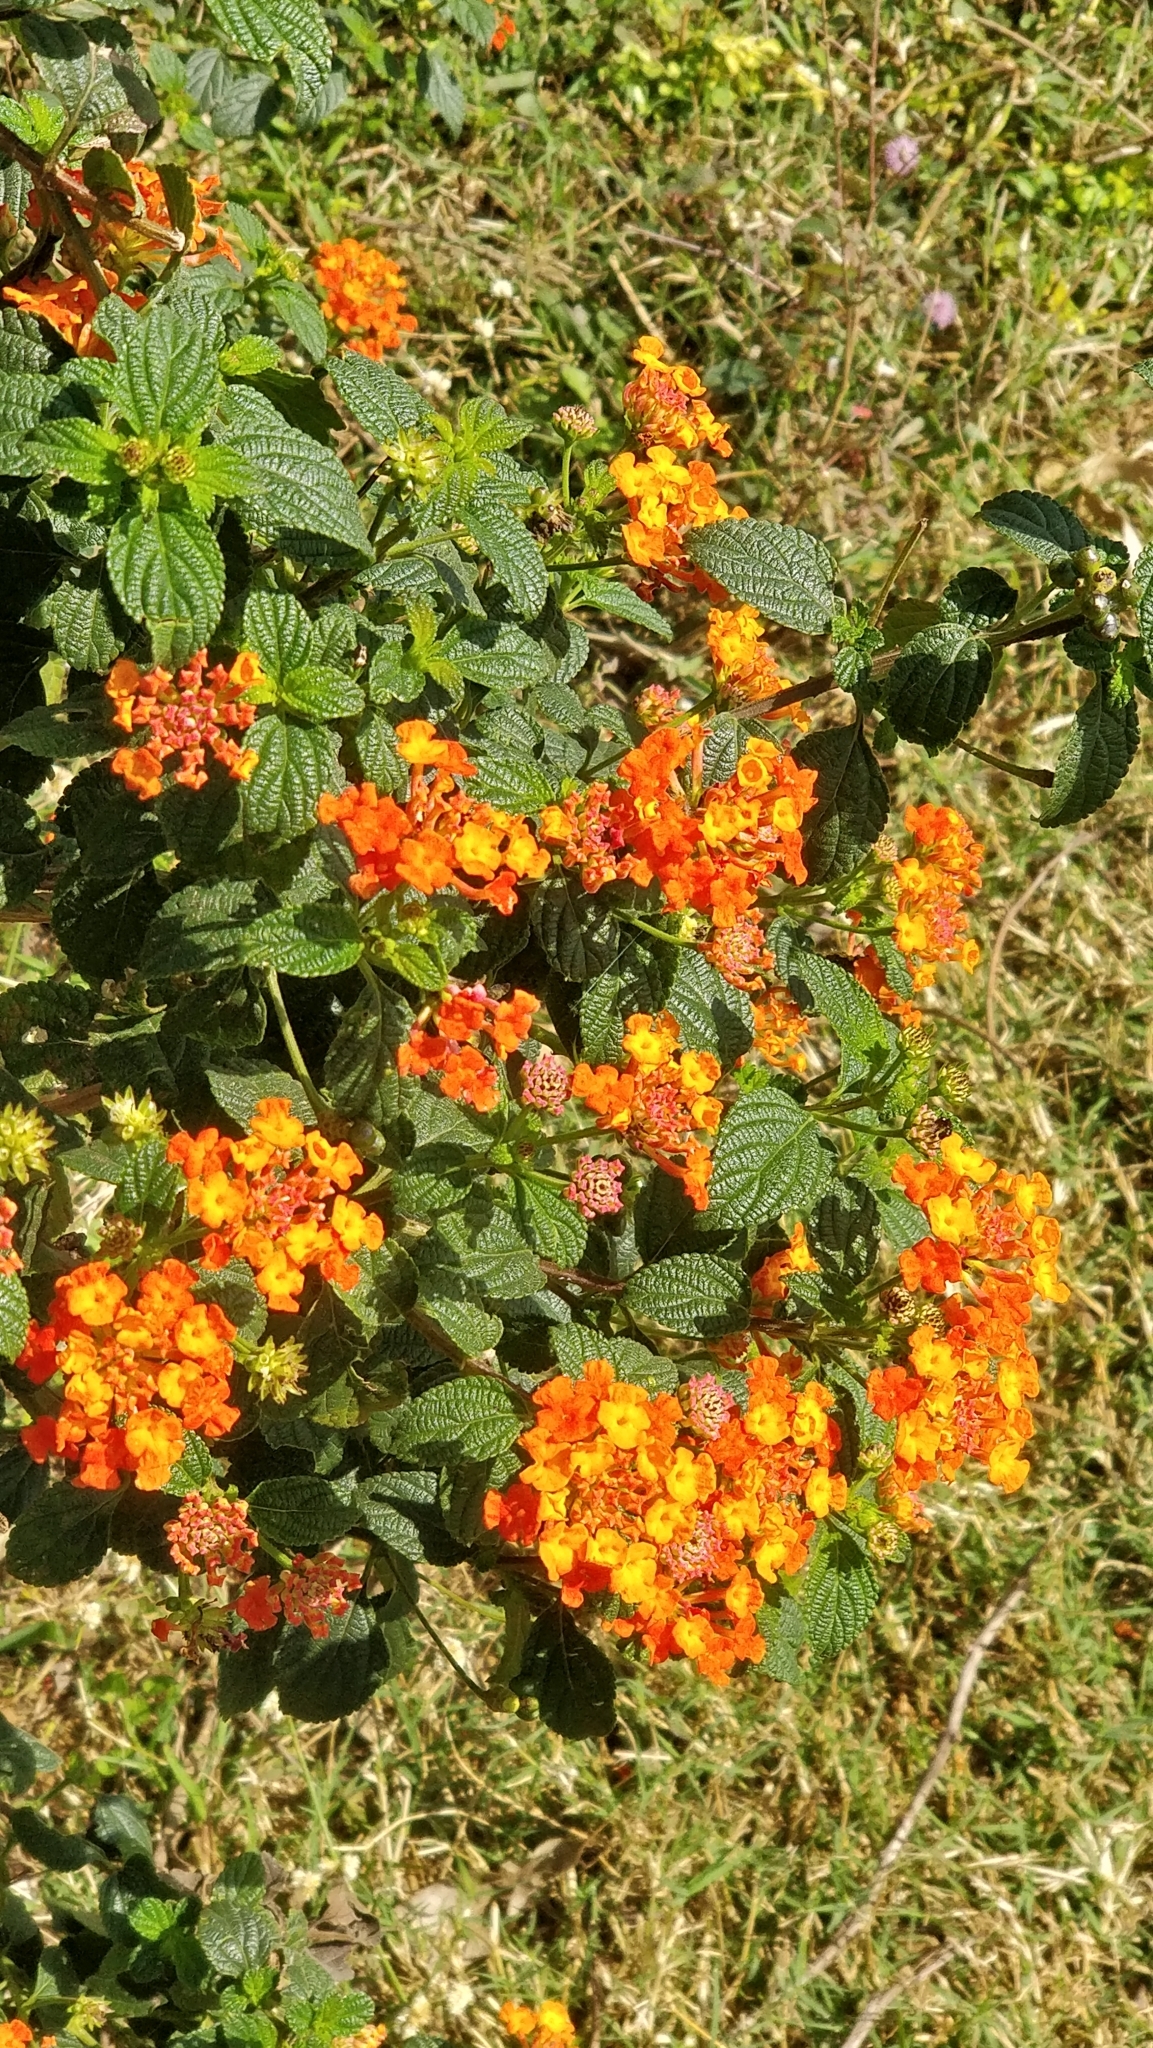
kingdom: Plantae
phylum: Tracheophyta
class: Magnoliopsida
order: Lamiales
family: Verbenaceae
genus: Lantana
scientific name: Lantana camara
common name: Lantana
